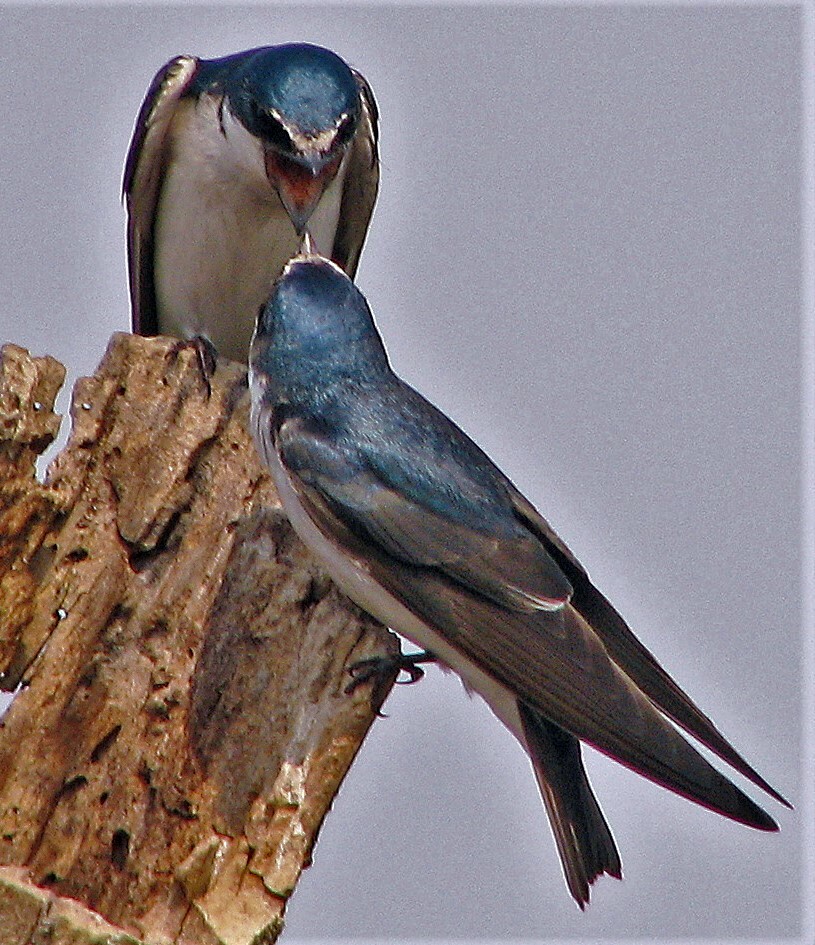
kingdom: Animalia
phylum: Chordata
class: Aves
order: Passeriformes
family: Hirundinidae
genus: Tachycineta
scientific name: Tachycineta leucorrhoa
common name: White-rumped swallow
